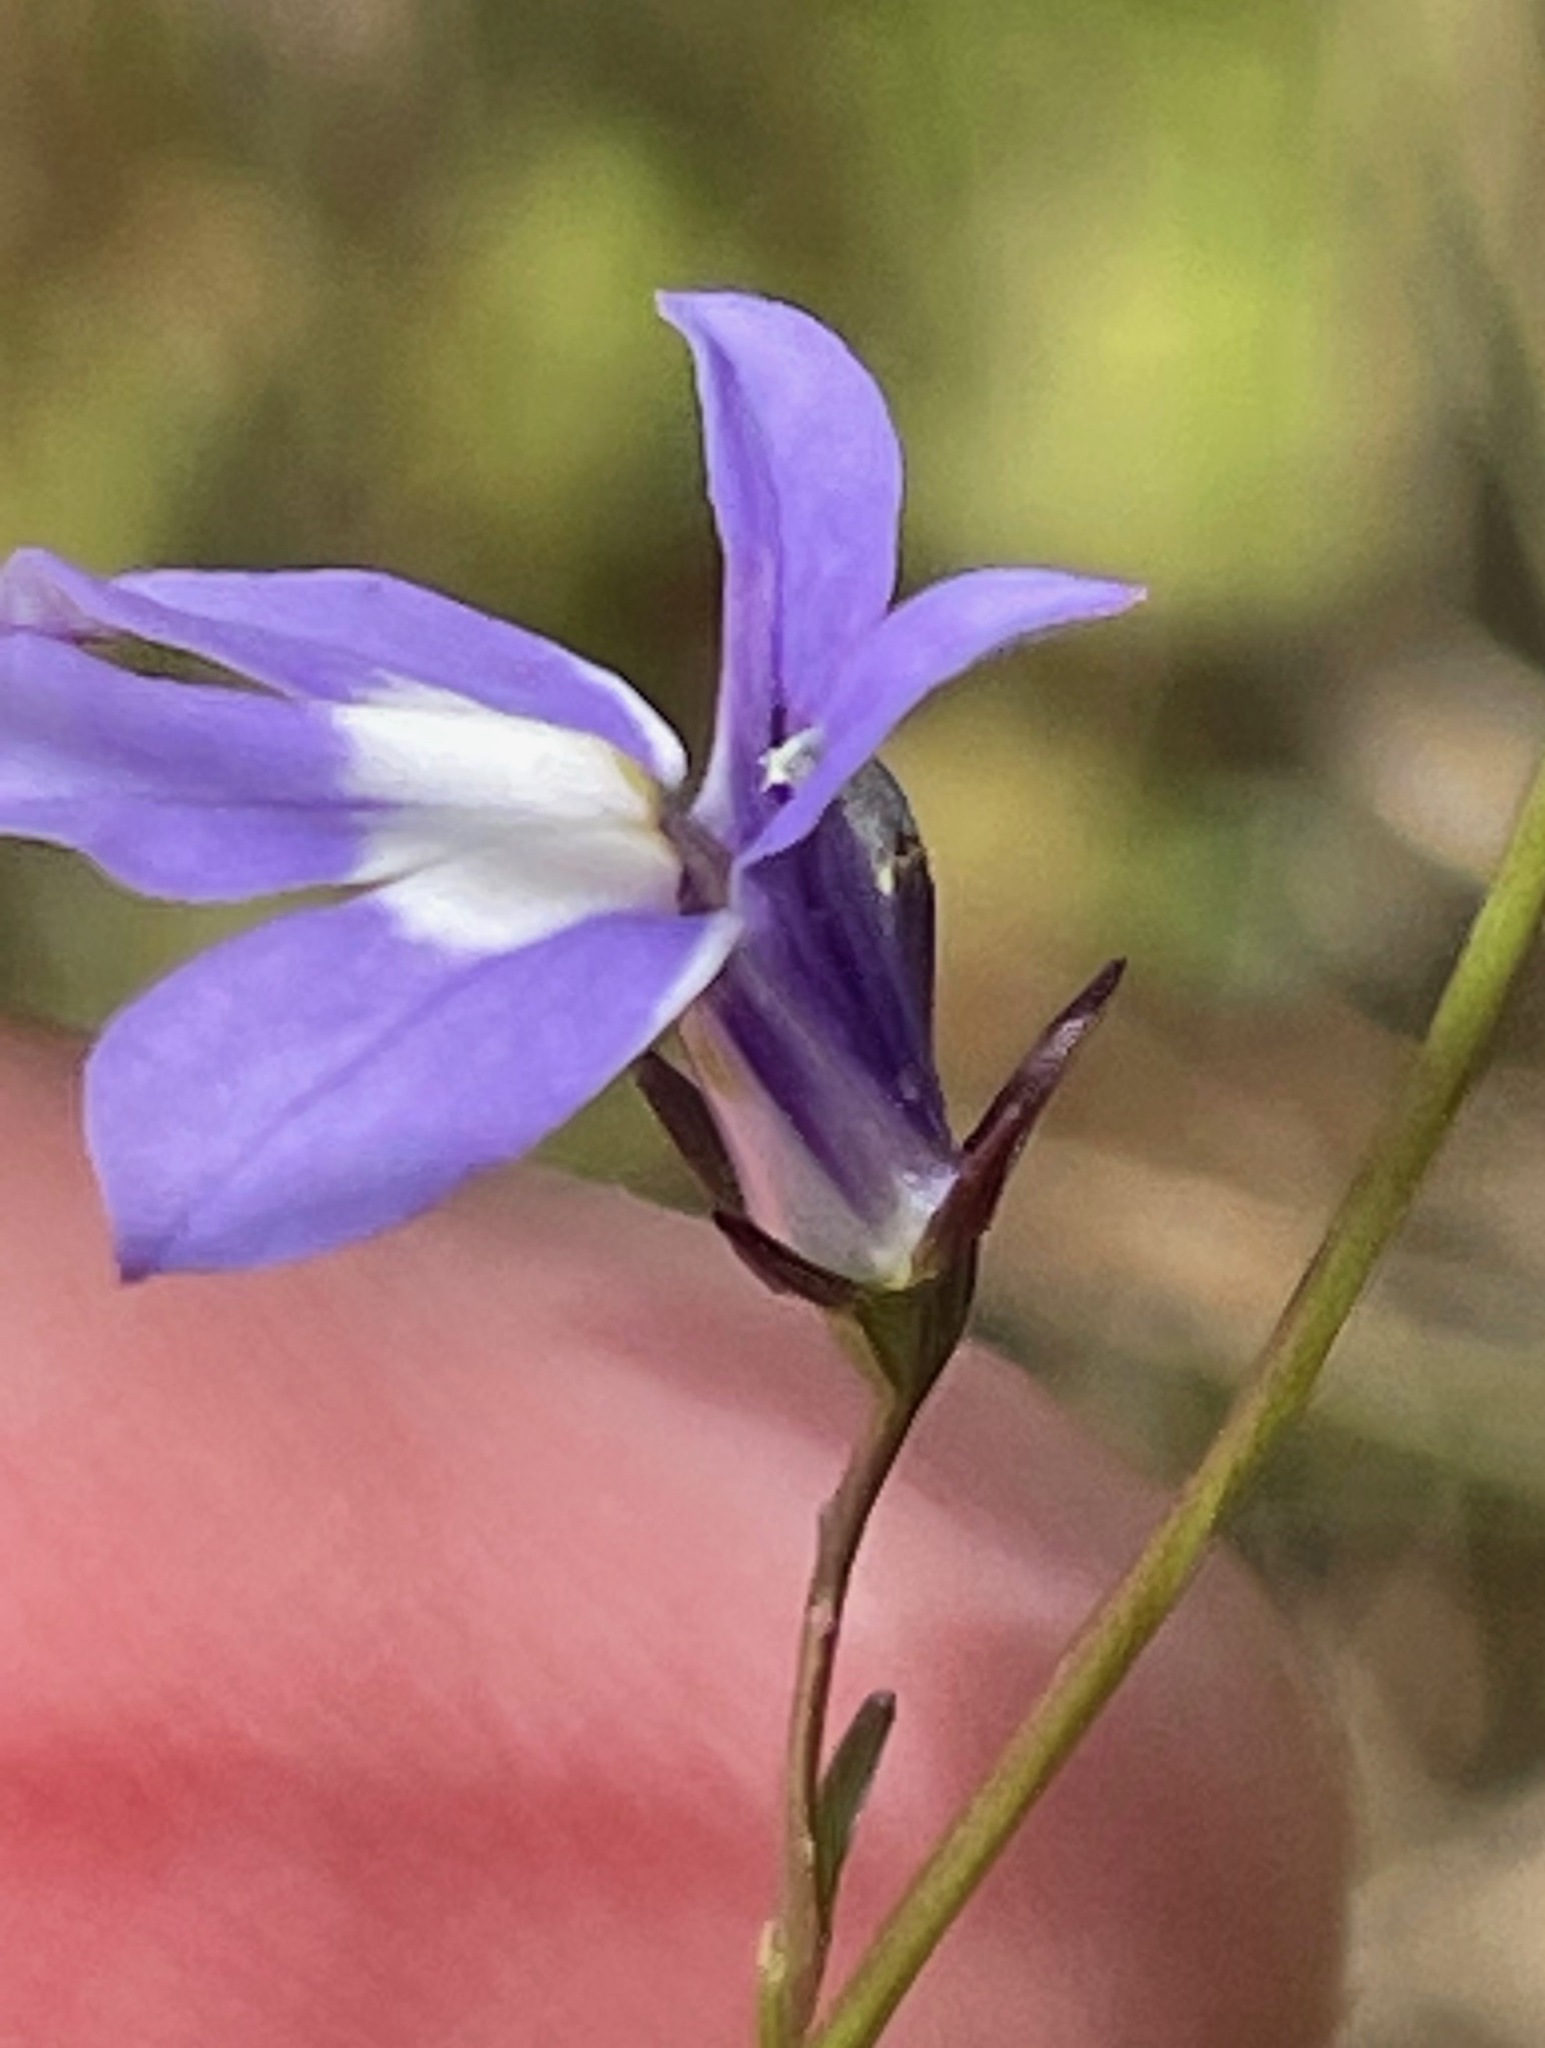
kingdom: Plantae
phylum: Tracheophyta
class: Magnoliopsida
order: Asterales
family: Campanulaceae
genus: Lobelia
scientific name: Lobelia kalmii
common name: Kalm's lobelia
